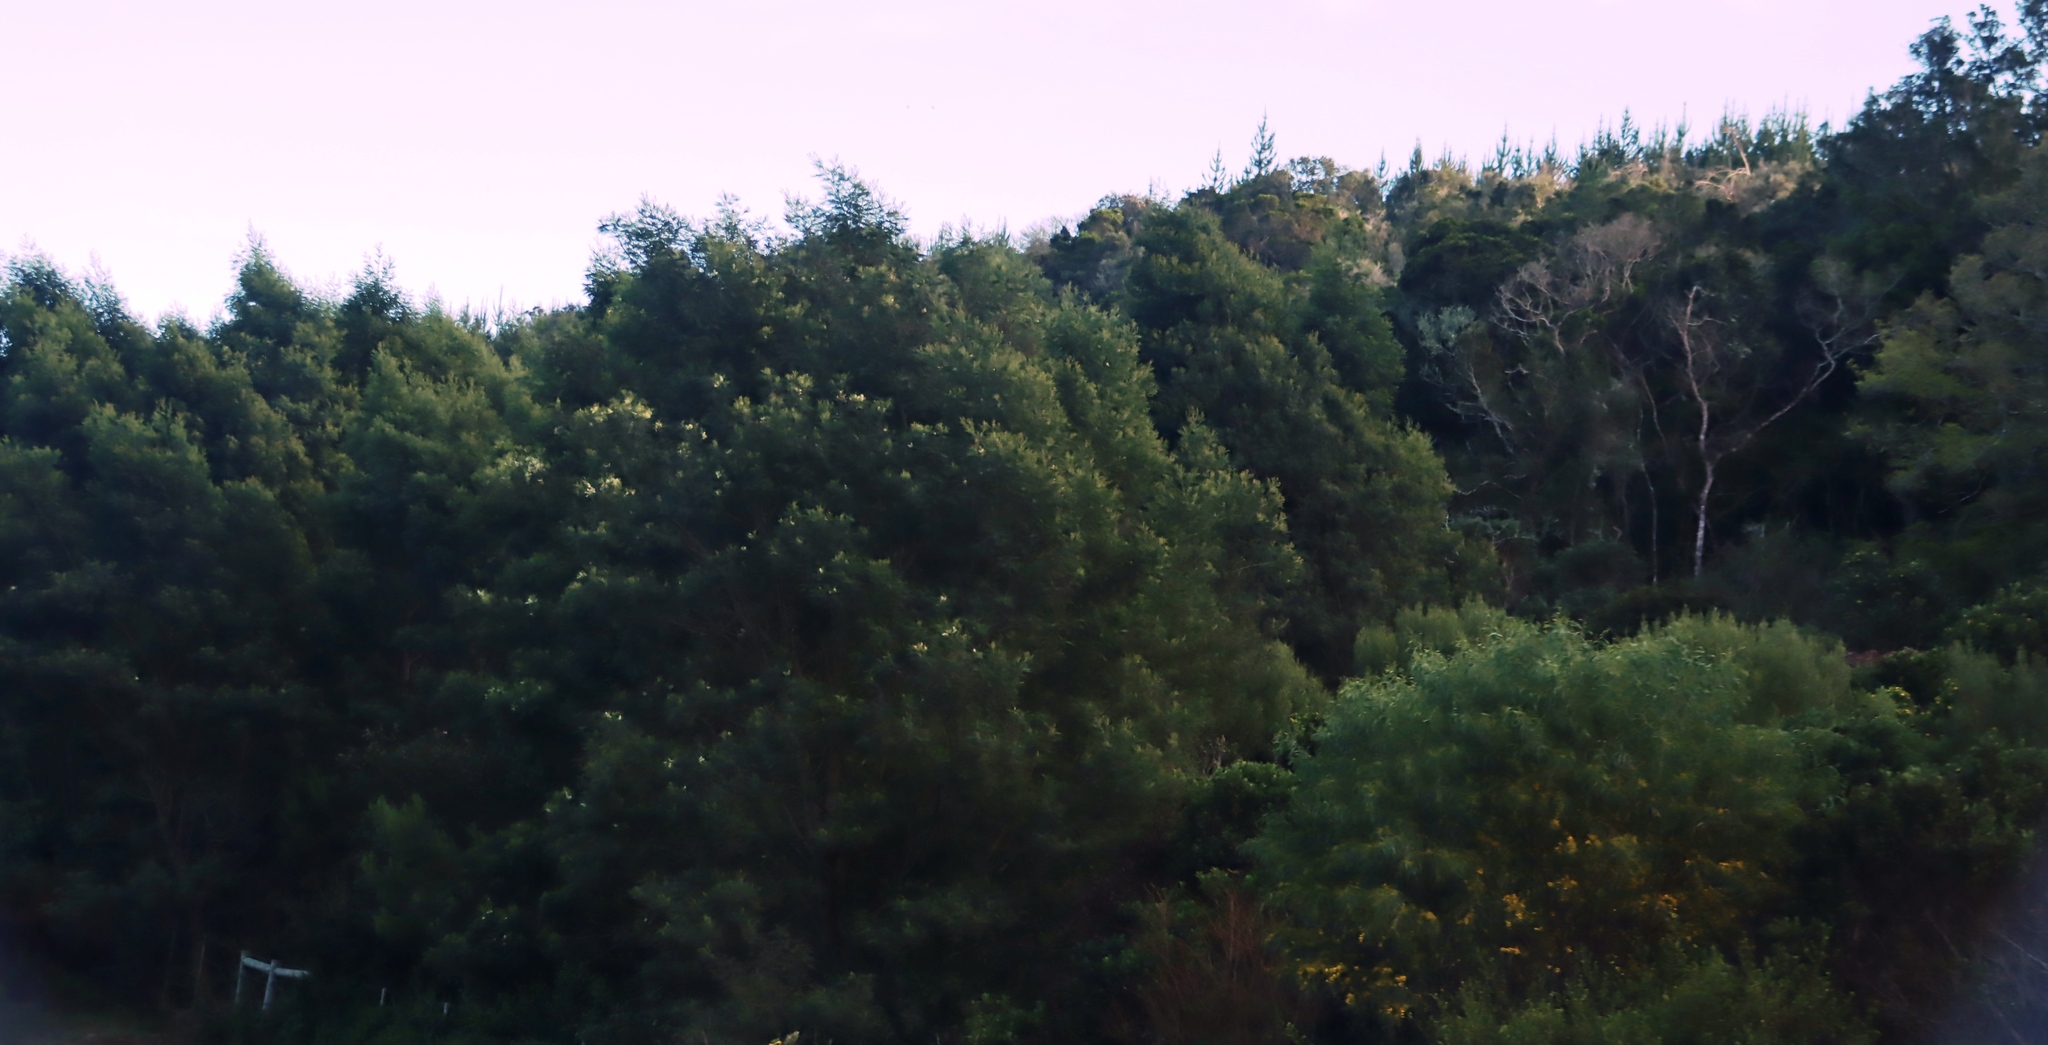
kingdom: Plantae
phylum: Tracheophyta
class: Magnoliopsida
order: Fabales
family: Fabaceae
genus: Acacia
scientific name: Acacia mearnsii
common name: Black wattle
